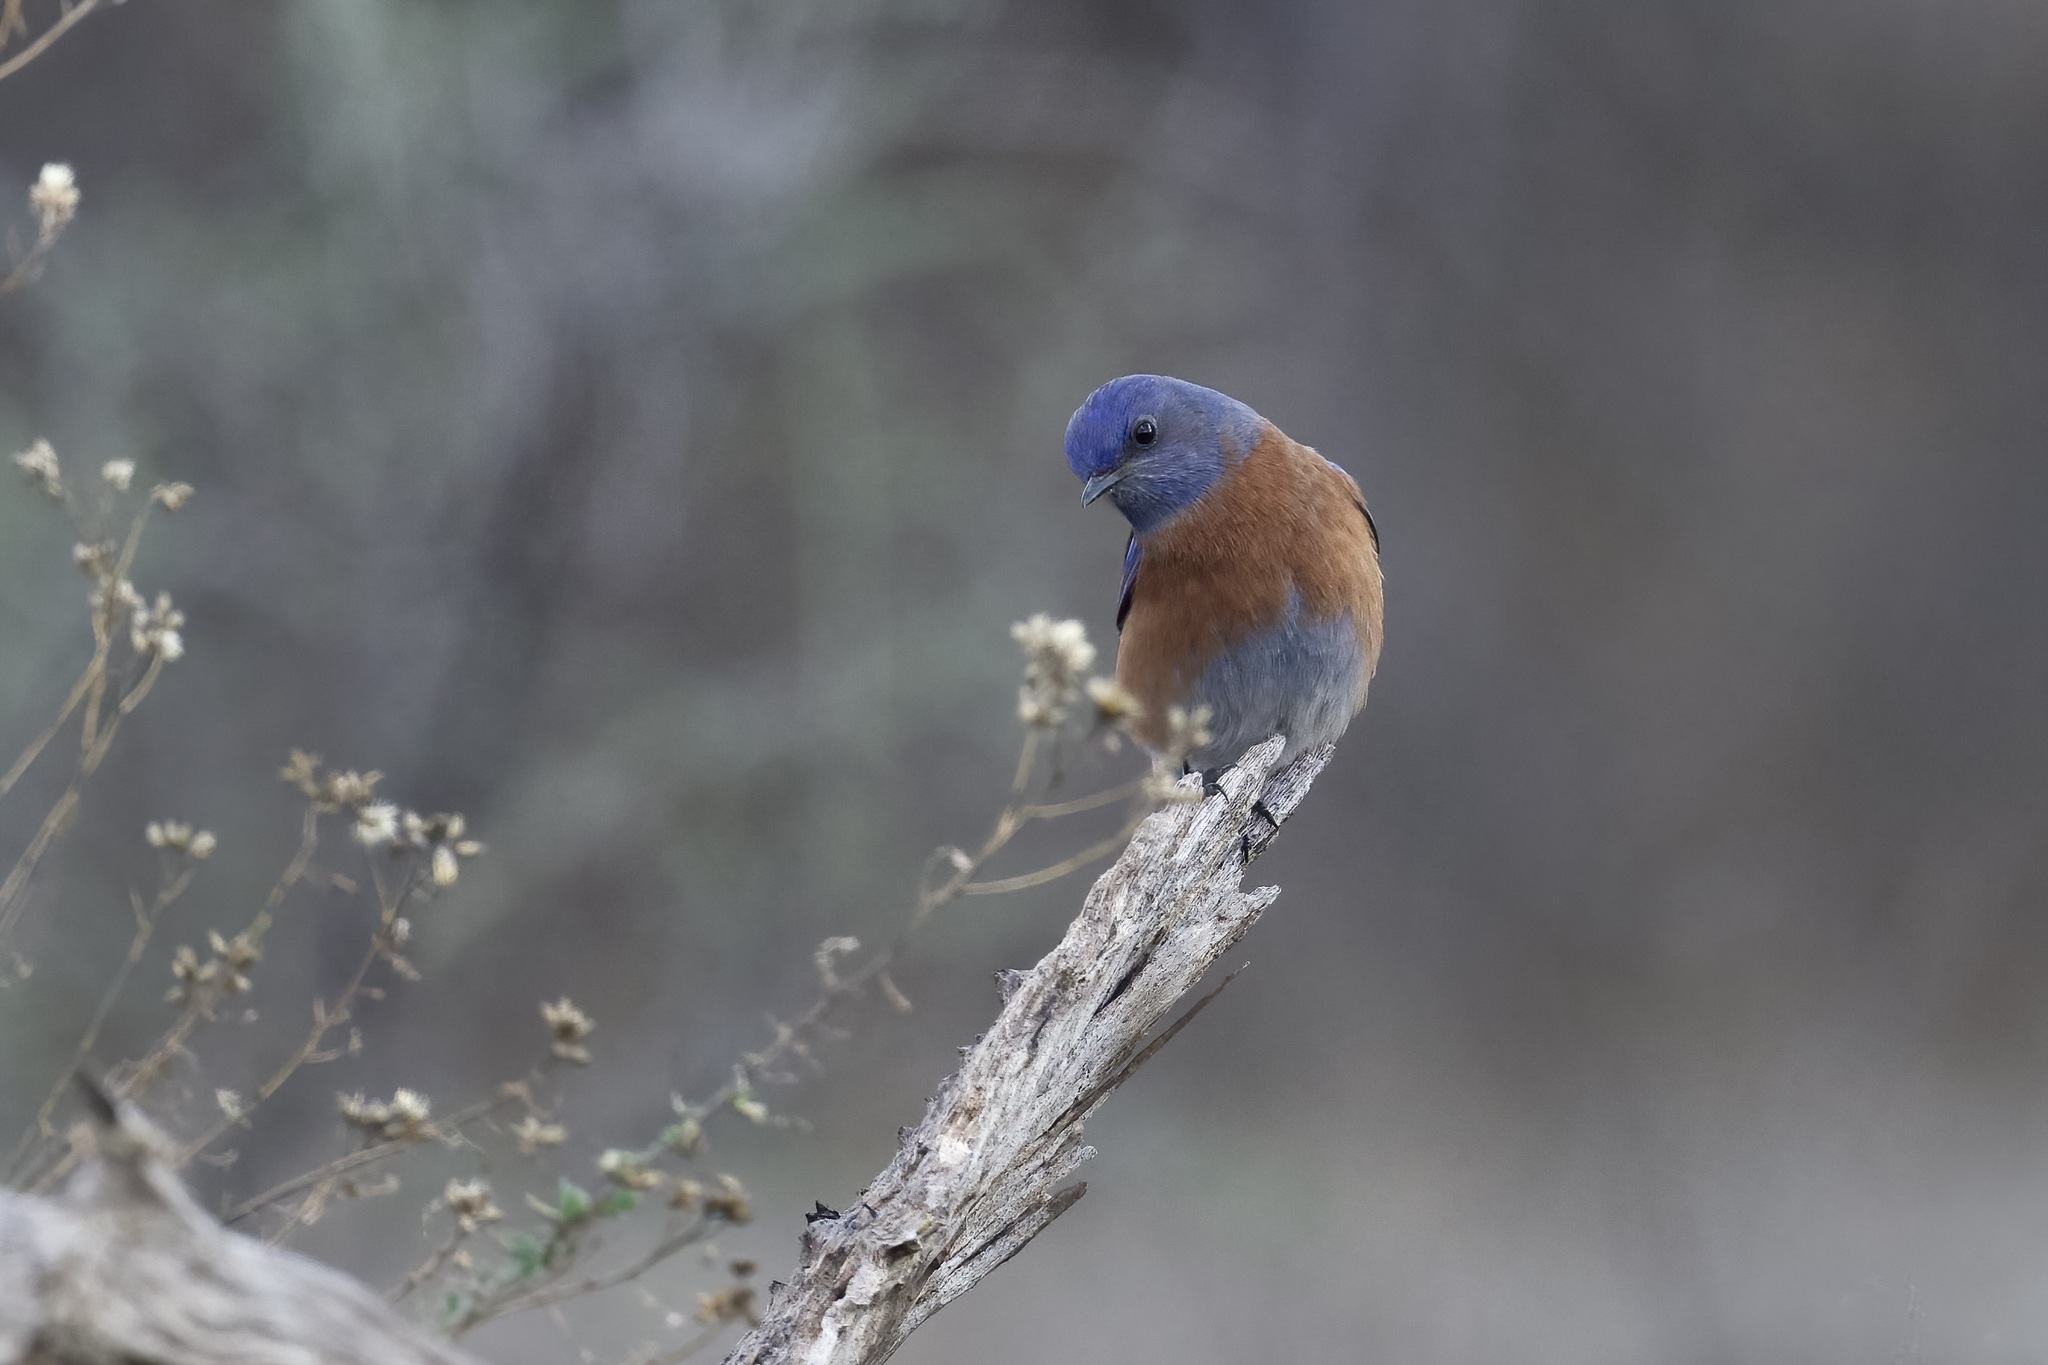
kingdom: Animalia
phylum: Chordata
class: Aves
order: Passeriformes
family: Turdidae
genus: Sialia
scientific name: Sialia mexicana
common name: Western bluebird
